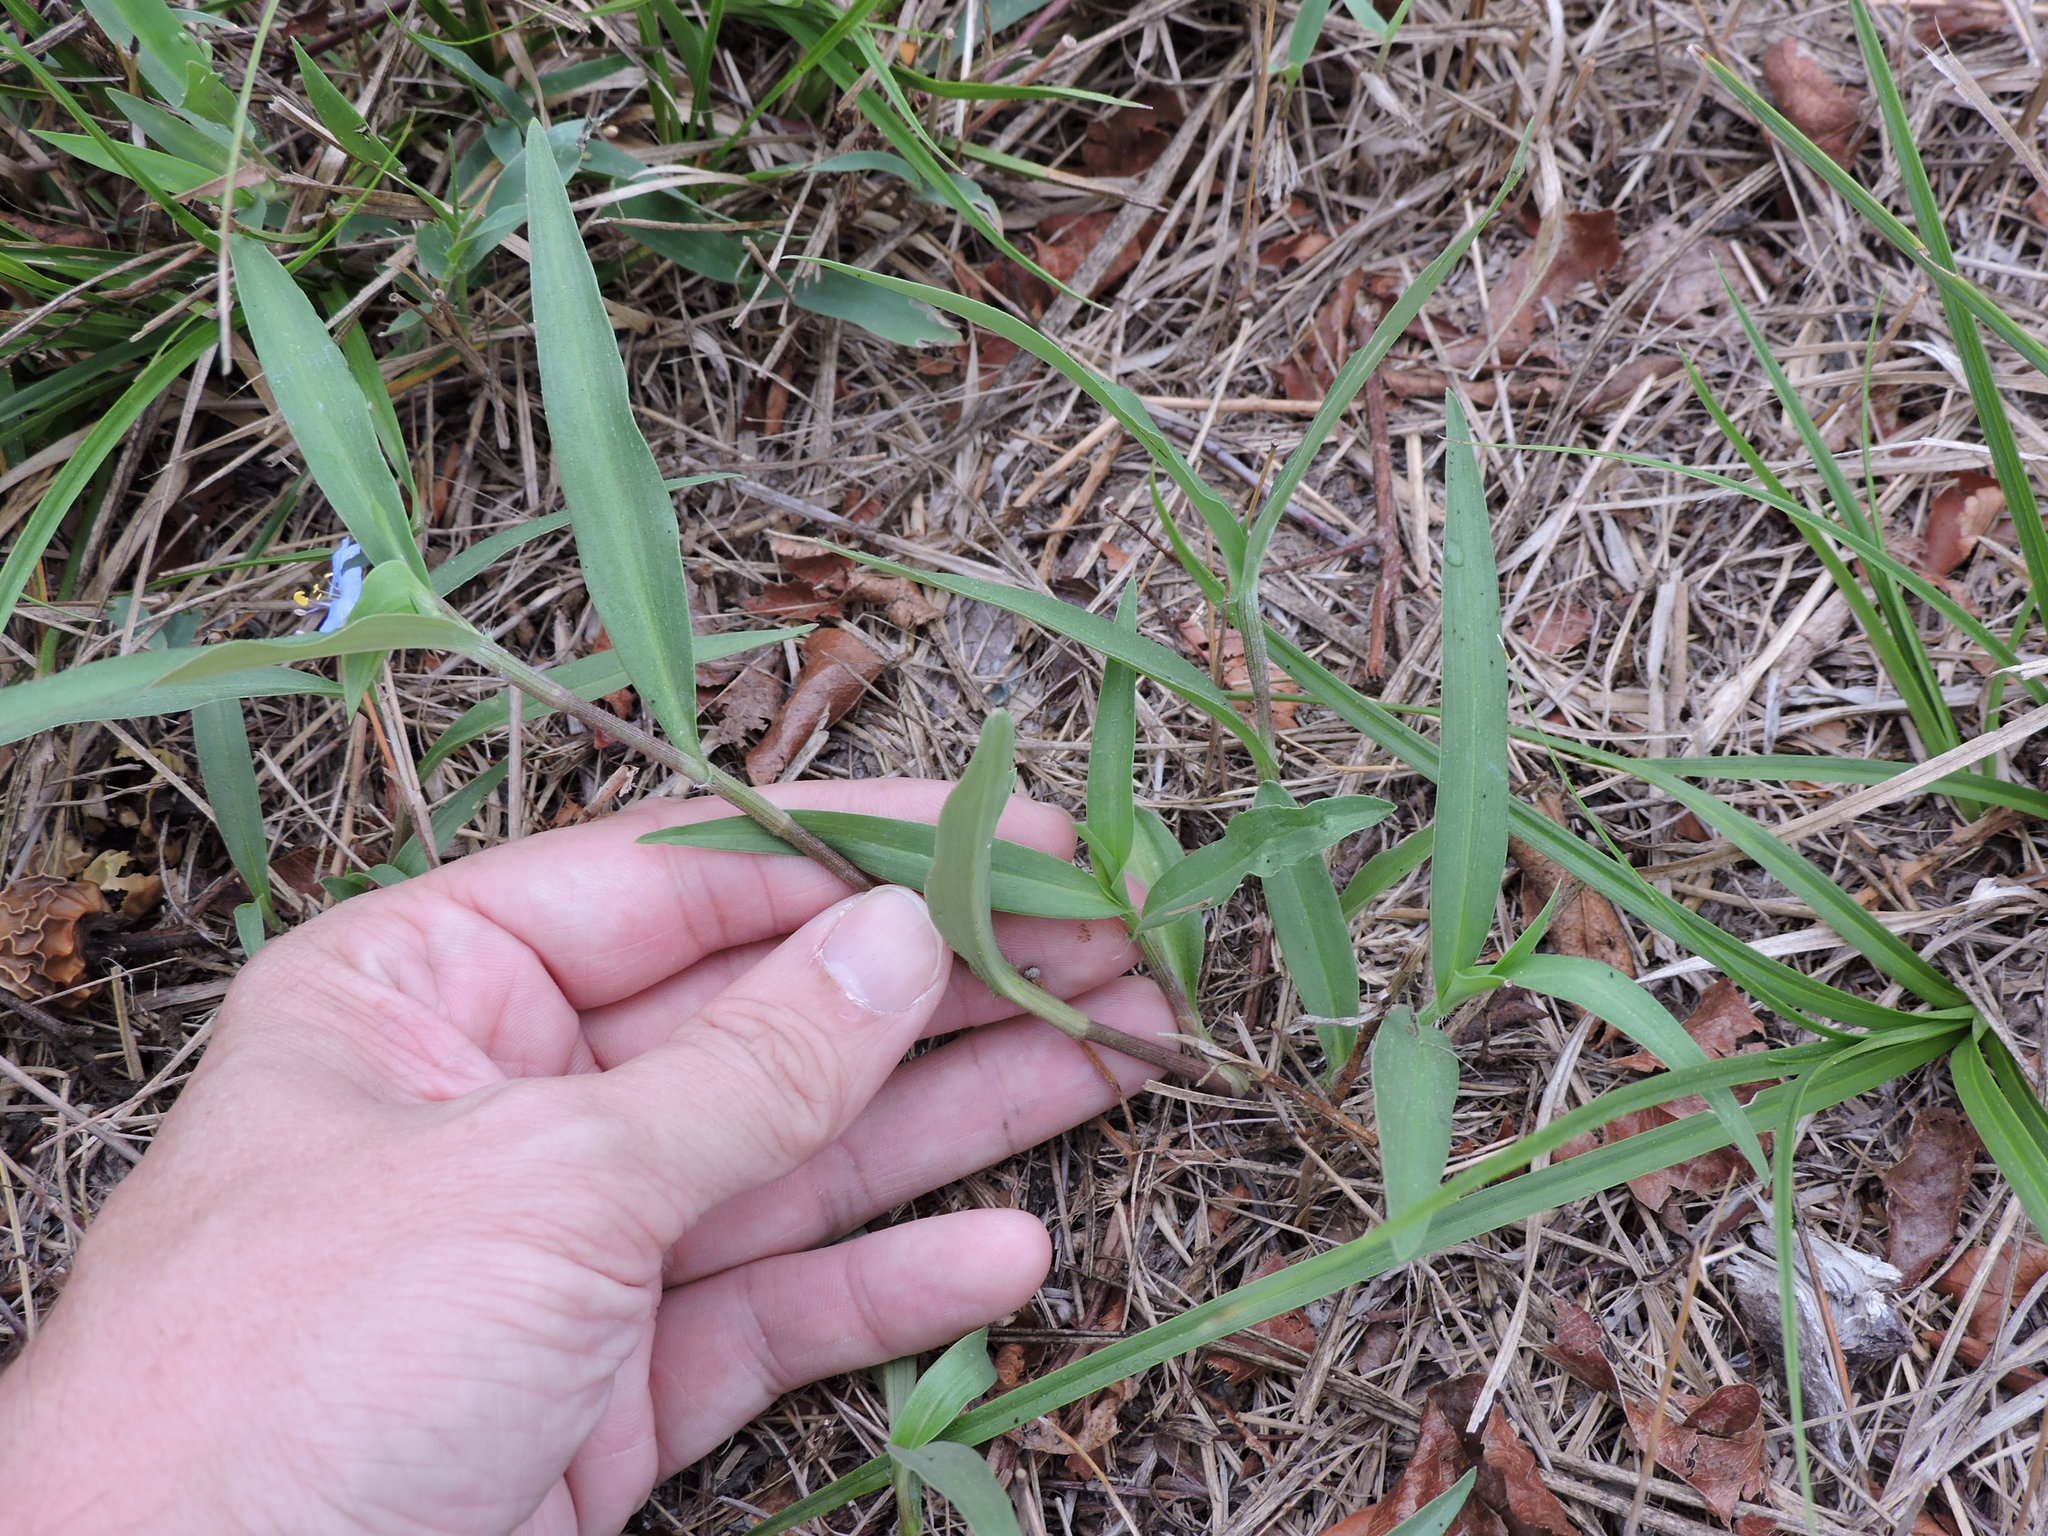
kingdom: Plantae
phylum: Tracheophyta
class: Liliopsida
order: Commelinales
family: Commelinaceae
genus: Commelina
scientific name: Commelina erecta
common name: Blousel blommetjie
